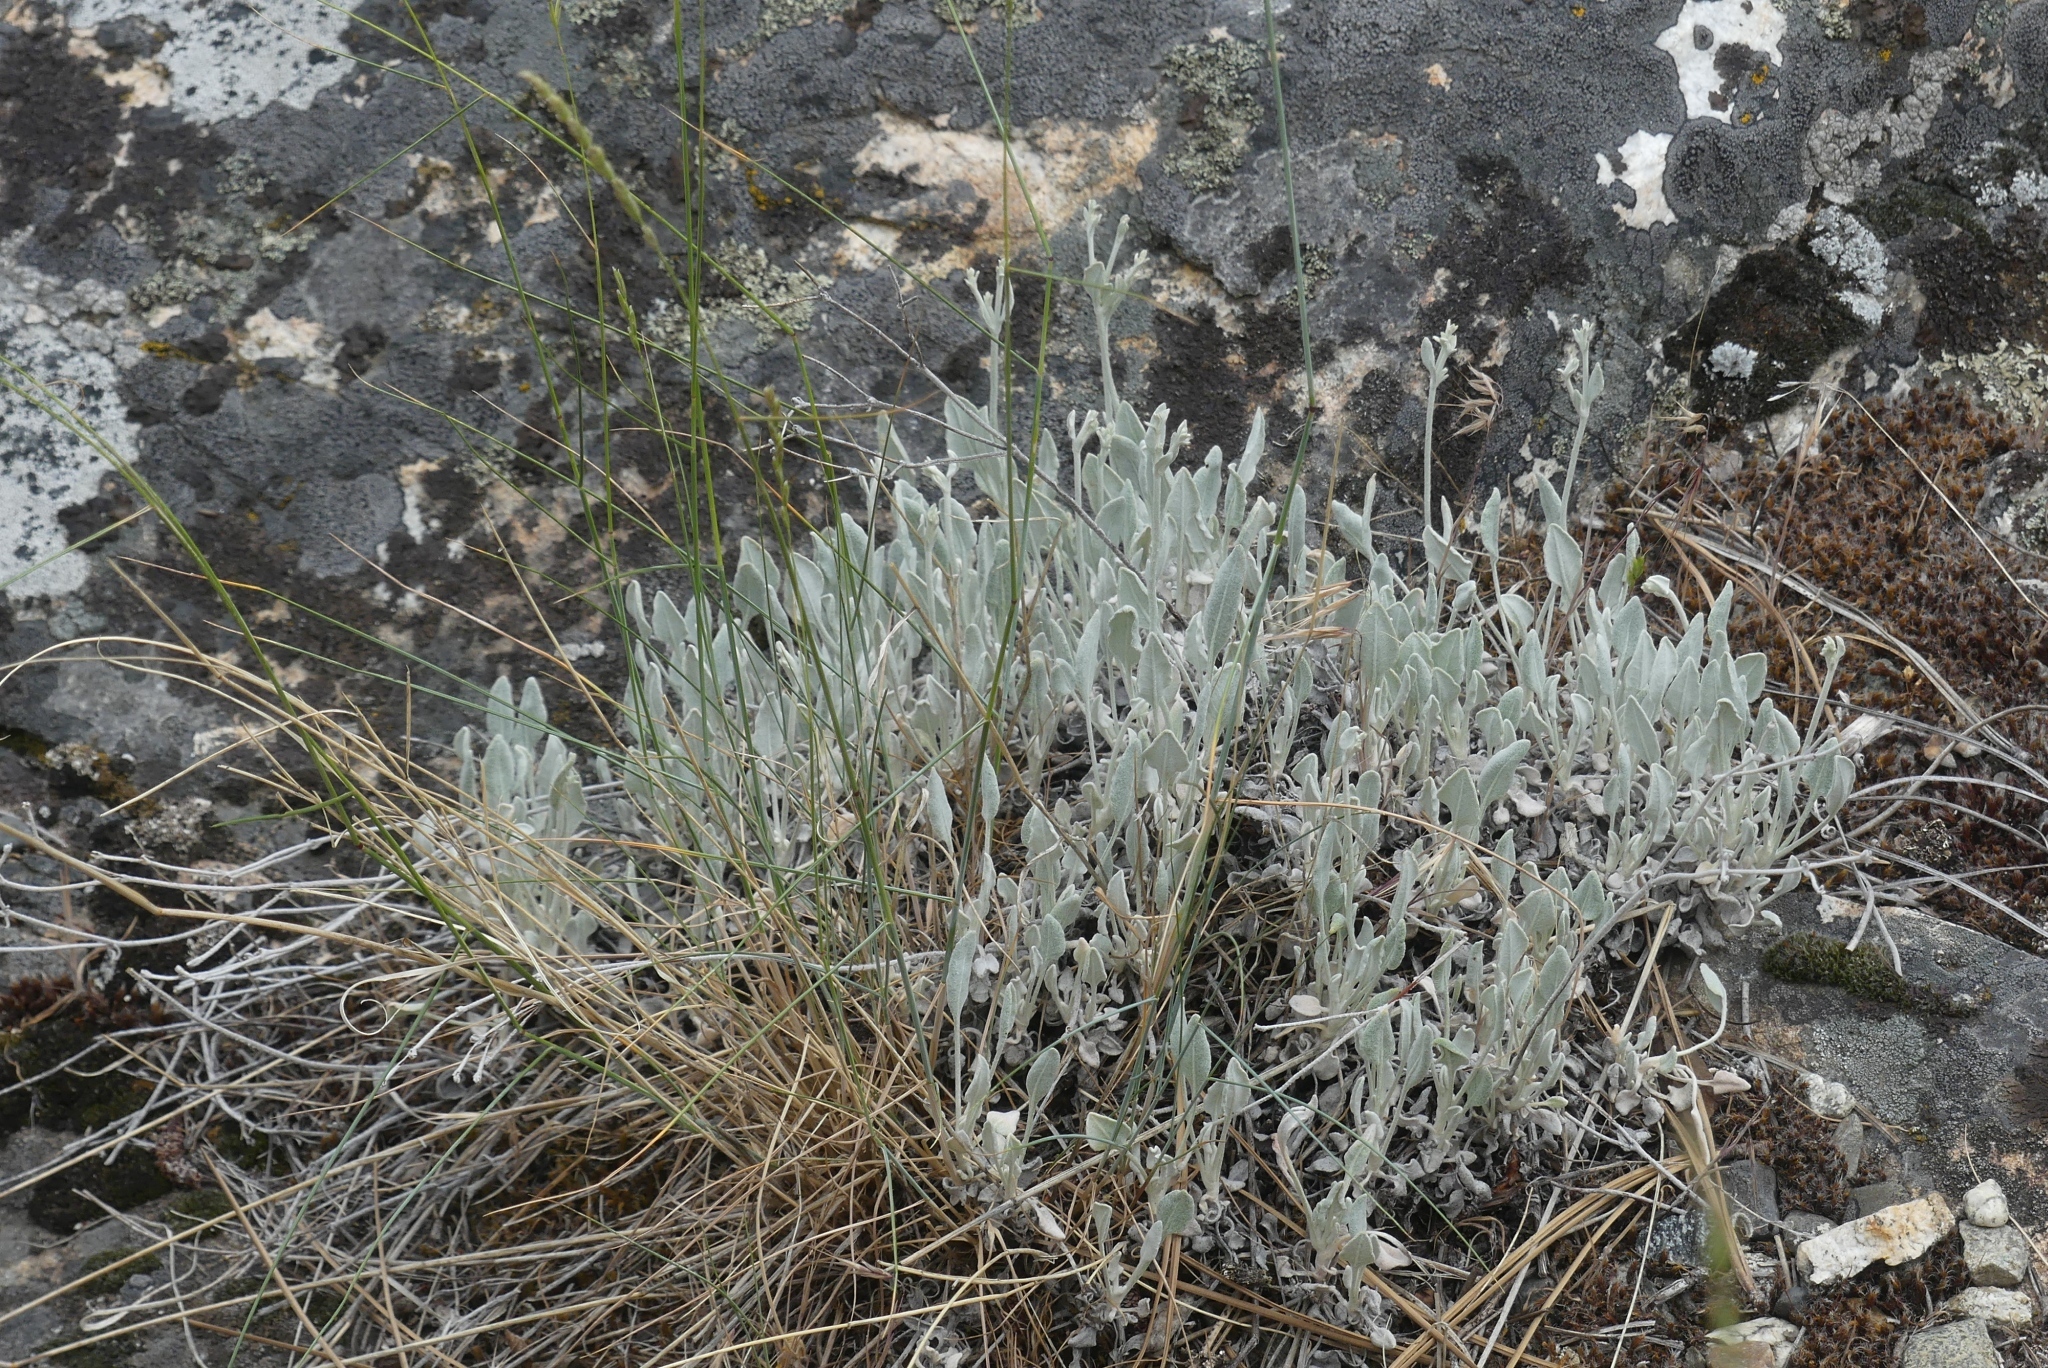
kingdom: Plantae
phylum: Tracheophyta
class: Magnoliopsida
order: Caryophyllales
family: Polygonaceae
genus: Eriogonum
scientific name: Eriogonum niveum
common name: Snow wild buckwheat
